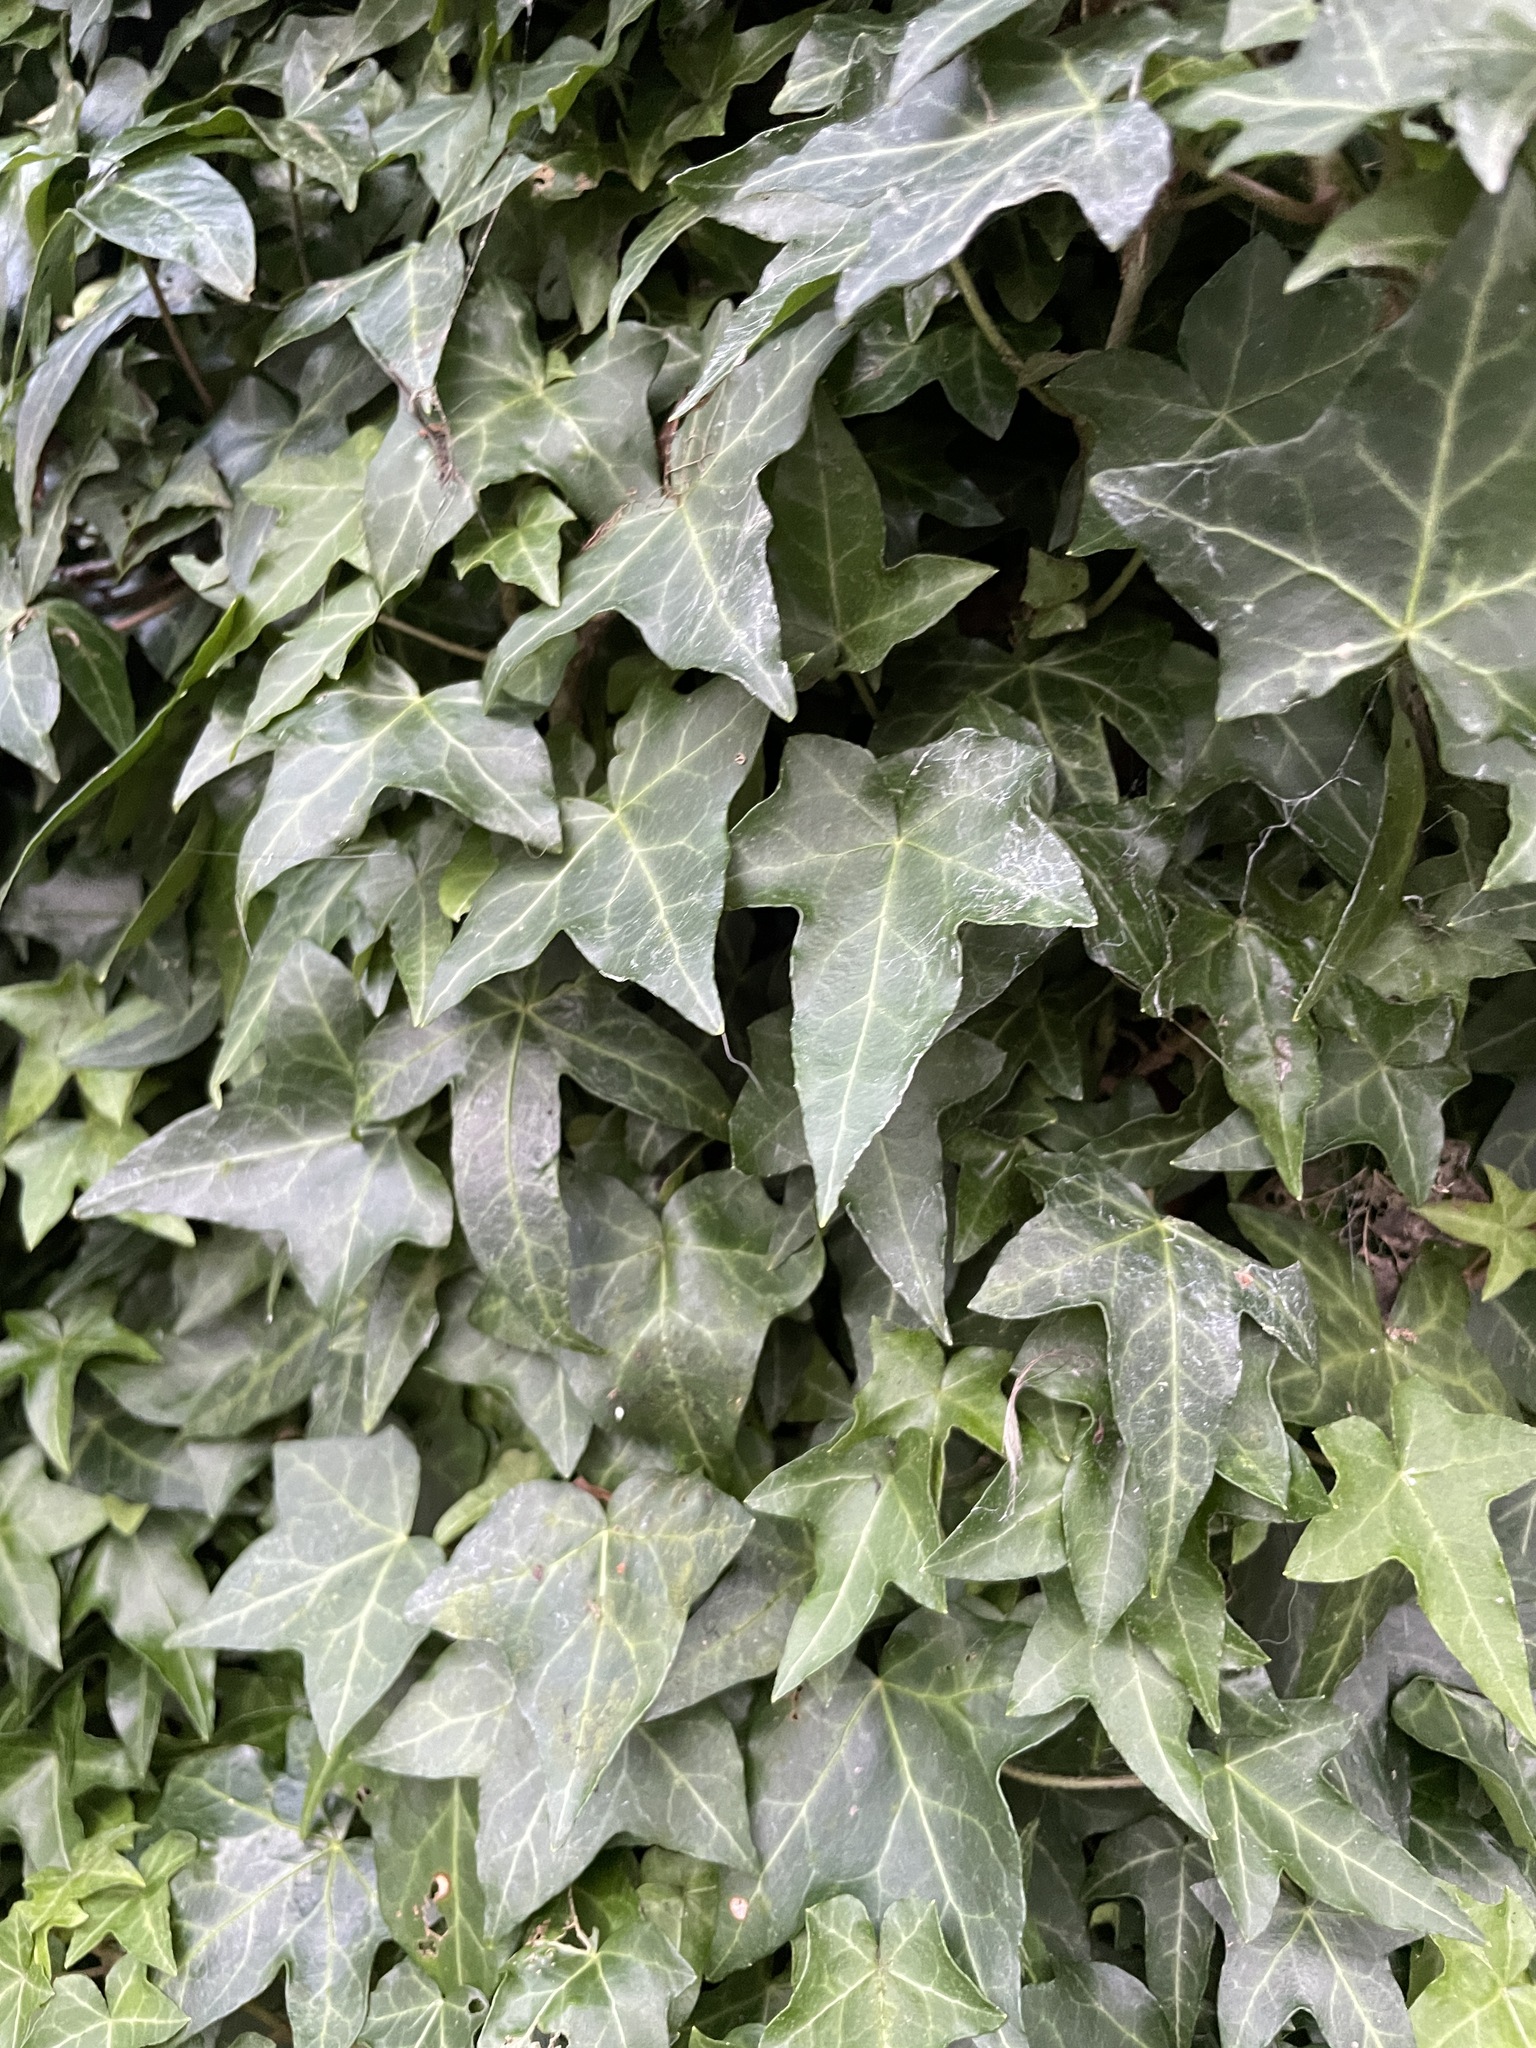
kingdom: Plantae
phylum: Tracheophyta
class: Magnoliopsida
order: Apiales
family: Araliaceae
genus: Hedera
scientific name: Hedera helix
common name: Ivy
